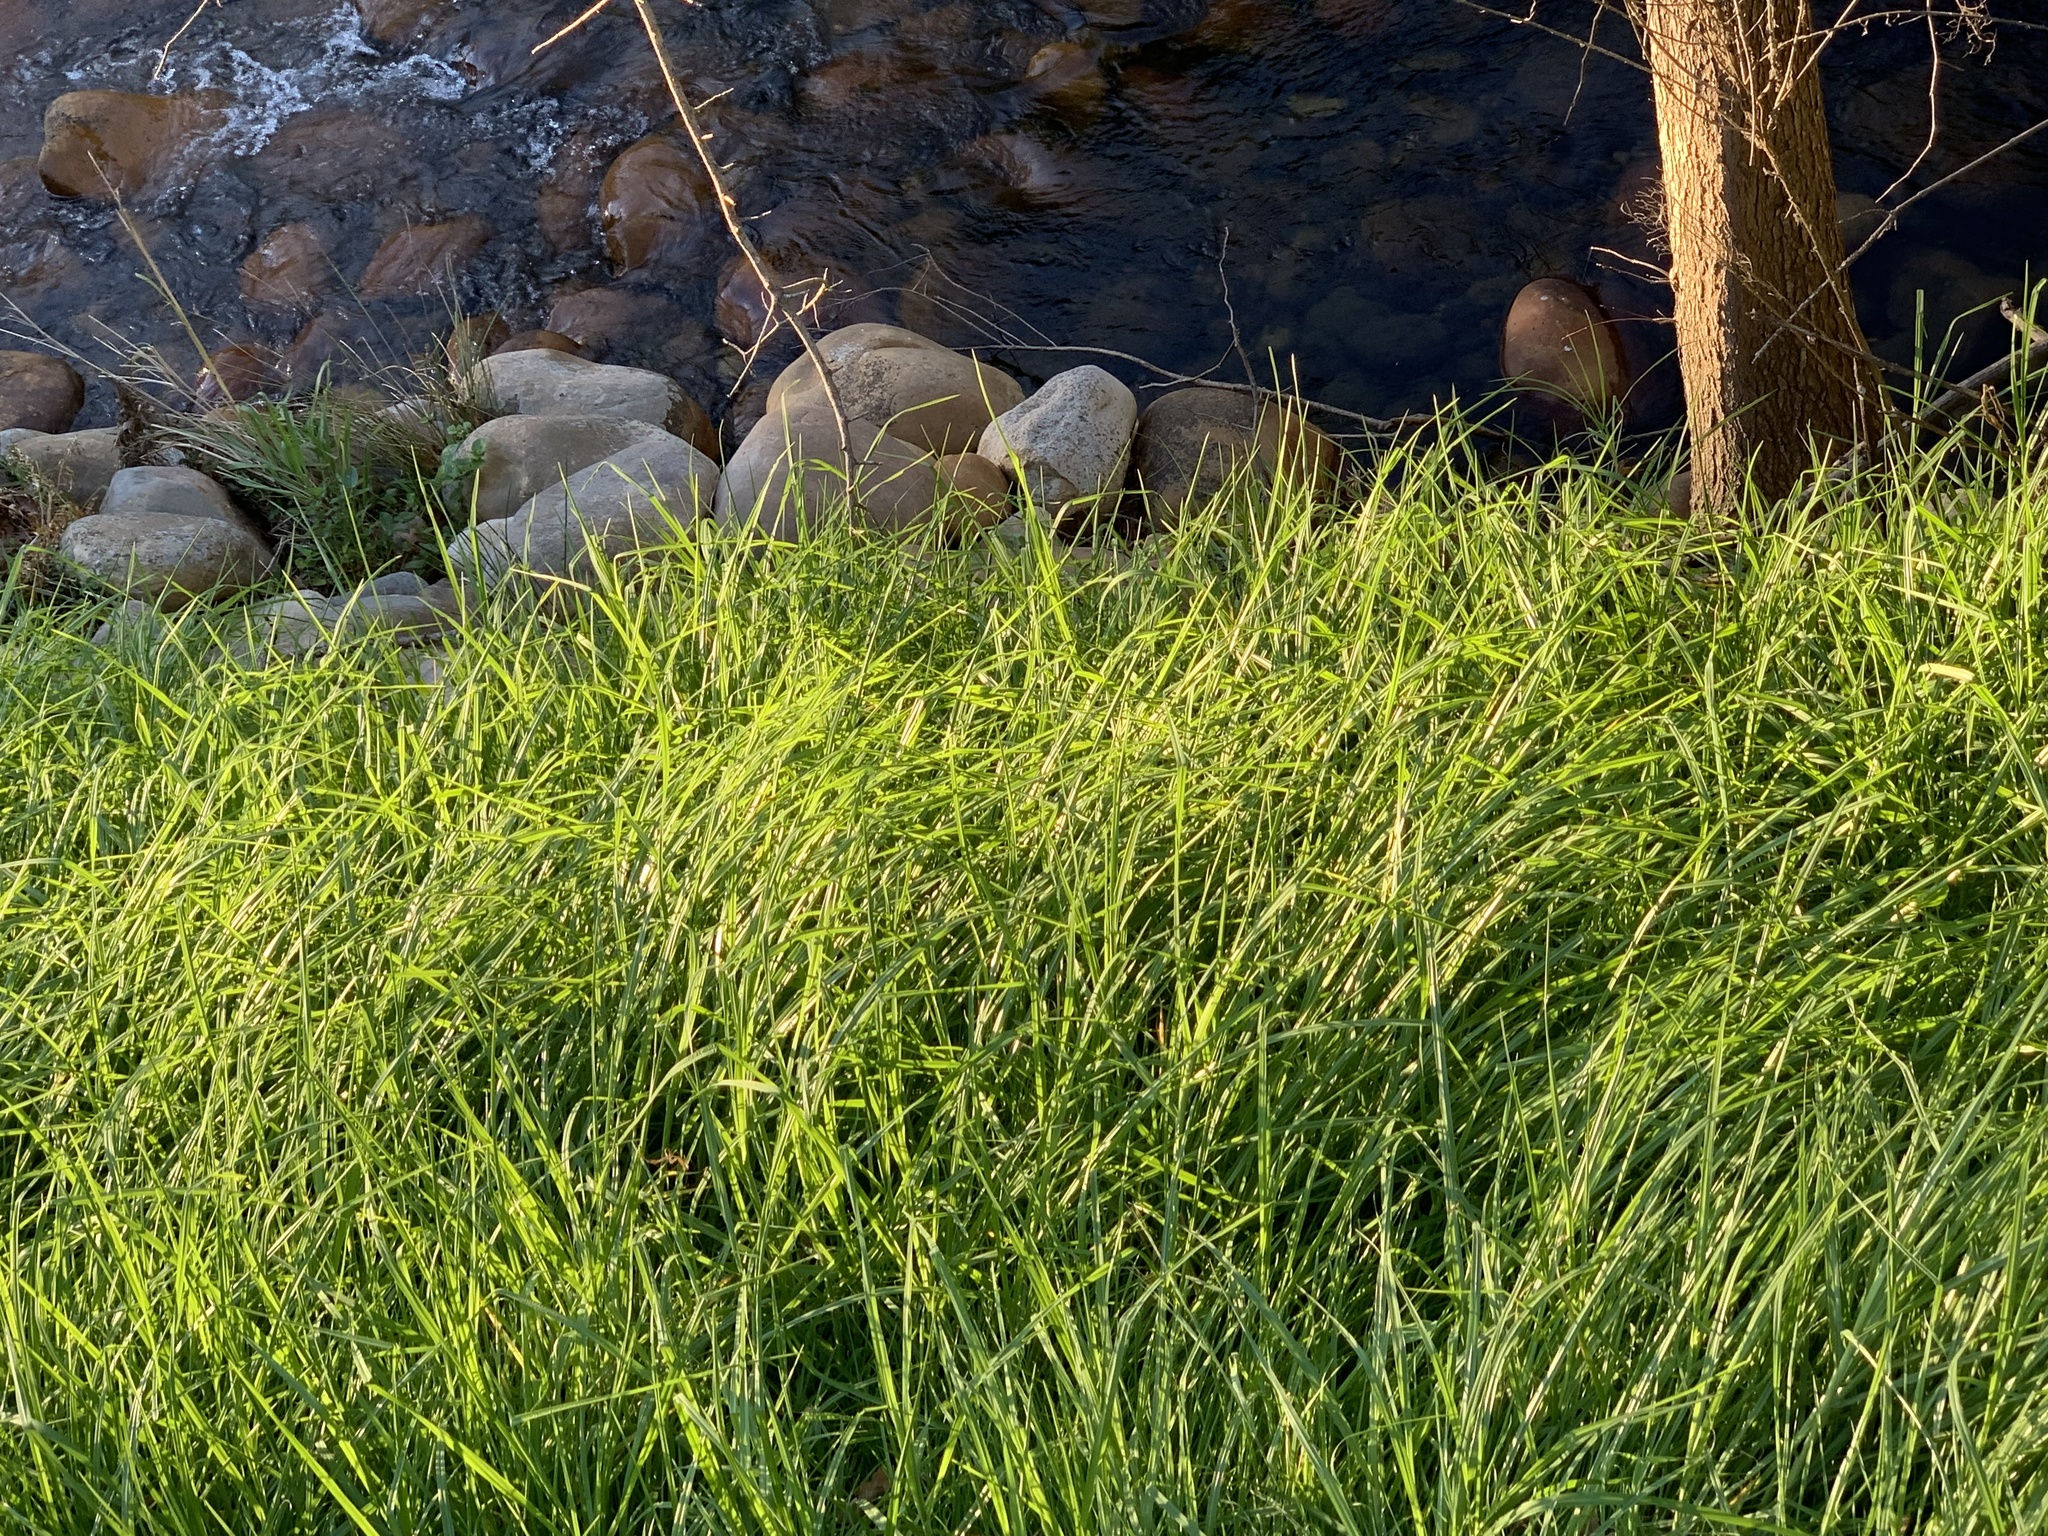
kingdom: Plantae
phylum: Tracheophyta
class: Liliopsida
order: Poales
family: Poaceae
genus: Cenchrus
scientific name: Cenchrus clandestinus
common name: Kikuyugrass
